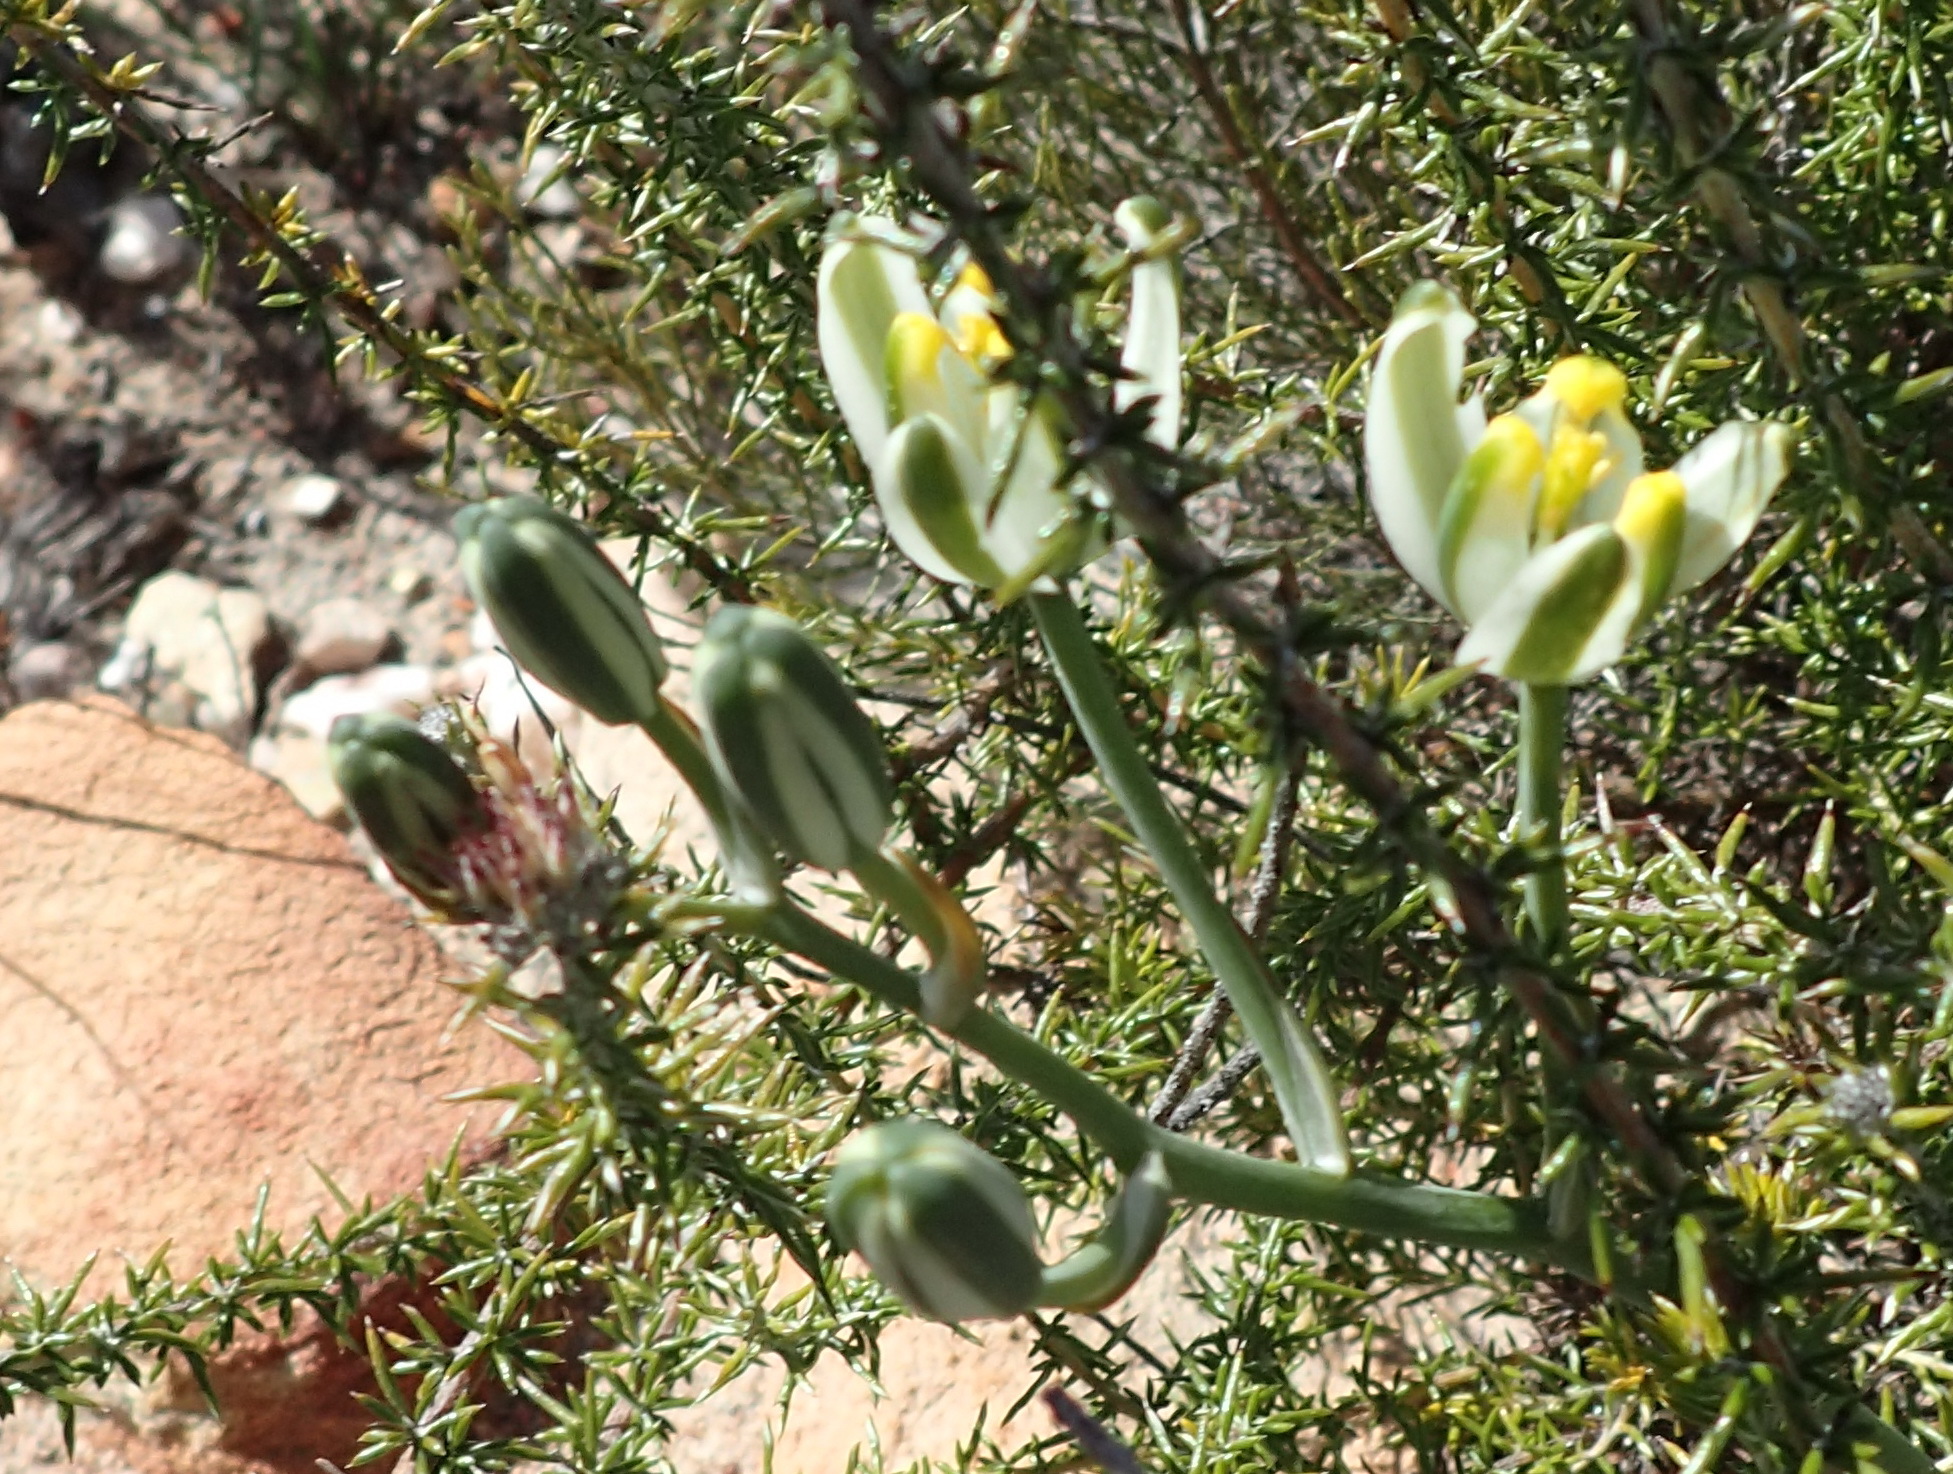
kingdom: Plantae
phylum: Tracheophyta
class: Liliopsida
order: Asparagales
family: Asparagaceae
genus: Albuca
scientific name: Albuca longipes
